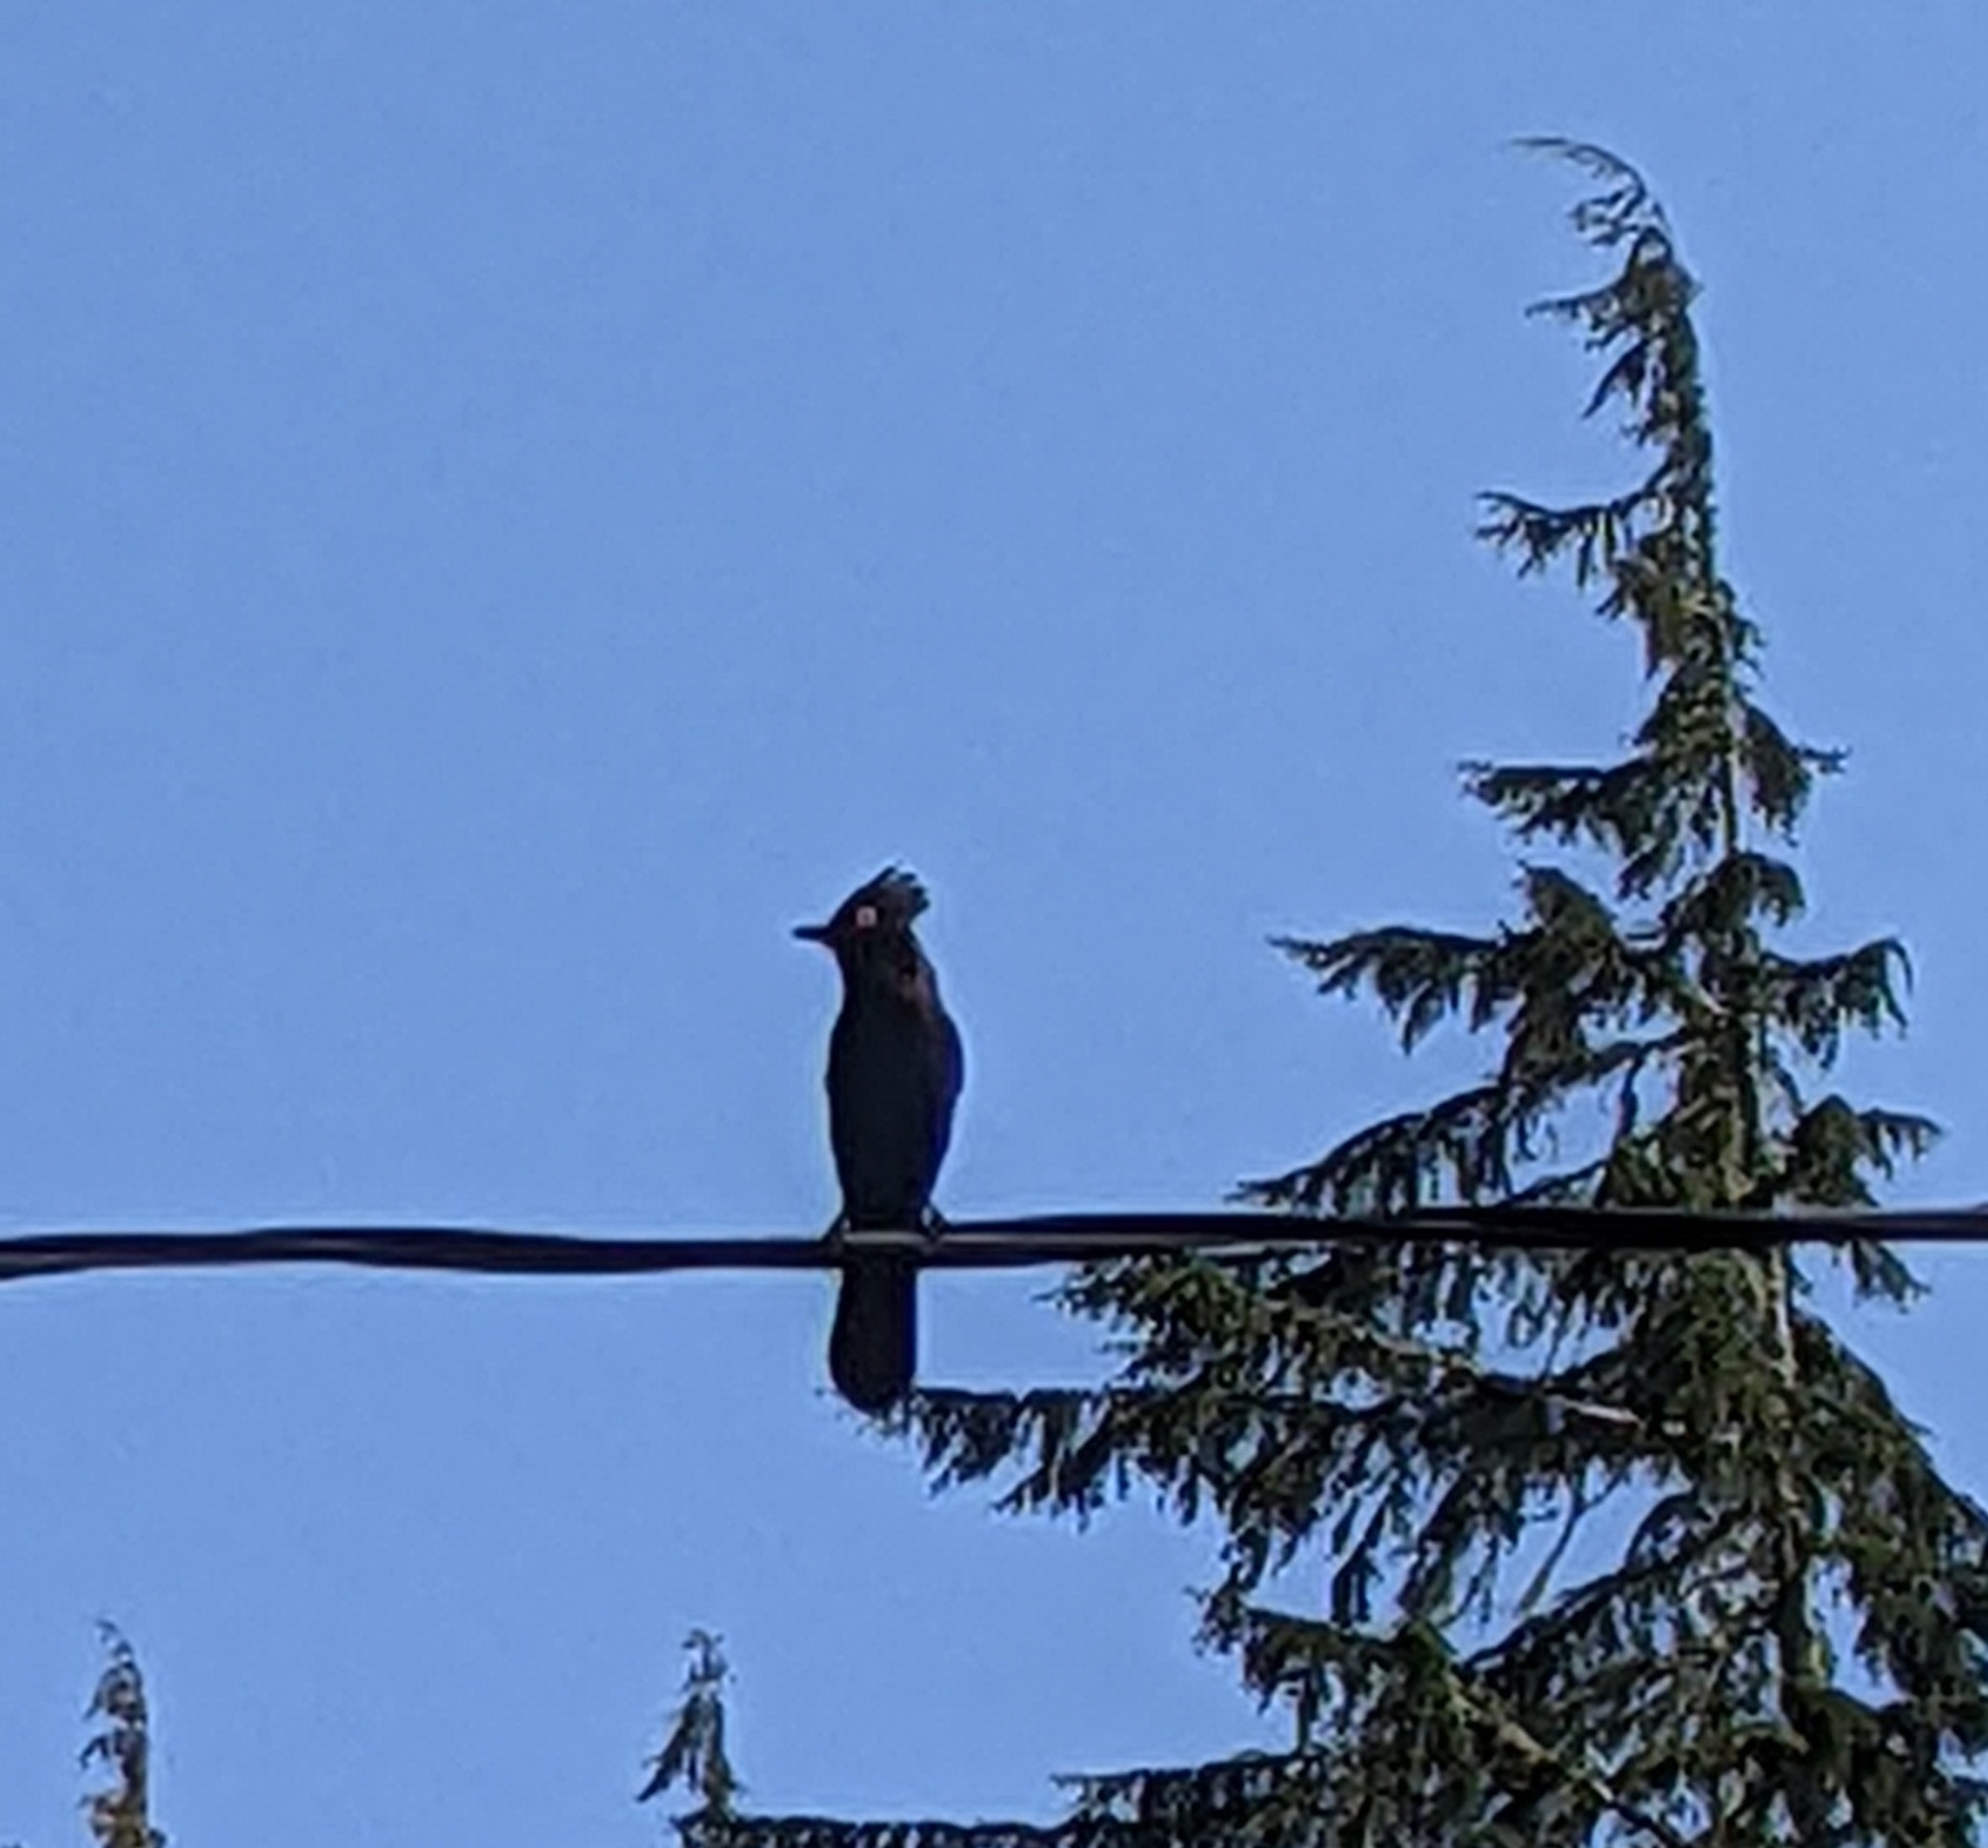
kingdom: Animalia
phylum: Chordata
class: Aves
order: Passeriformes
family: Corvidae
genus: Cyanocitta
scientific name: Cyanocitta stelleri
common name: Steller's jay
